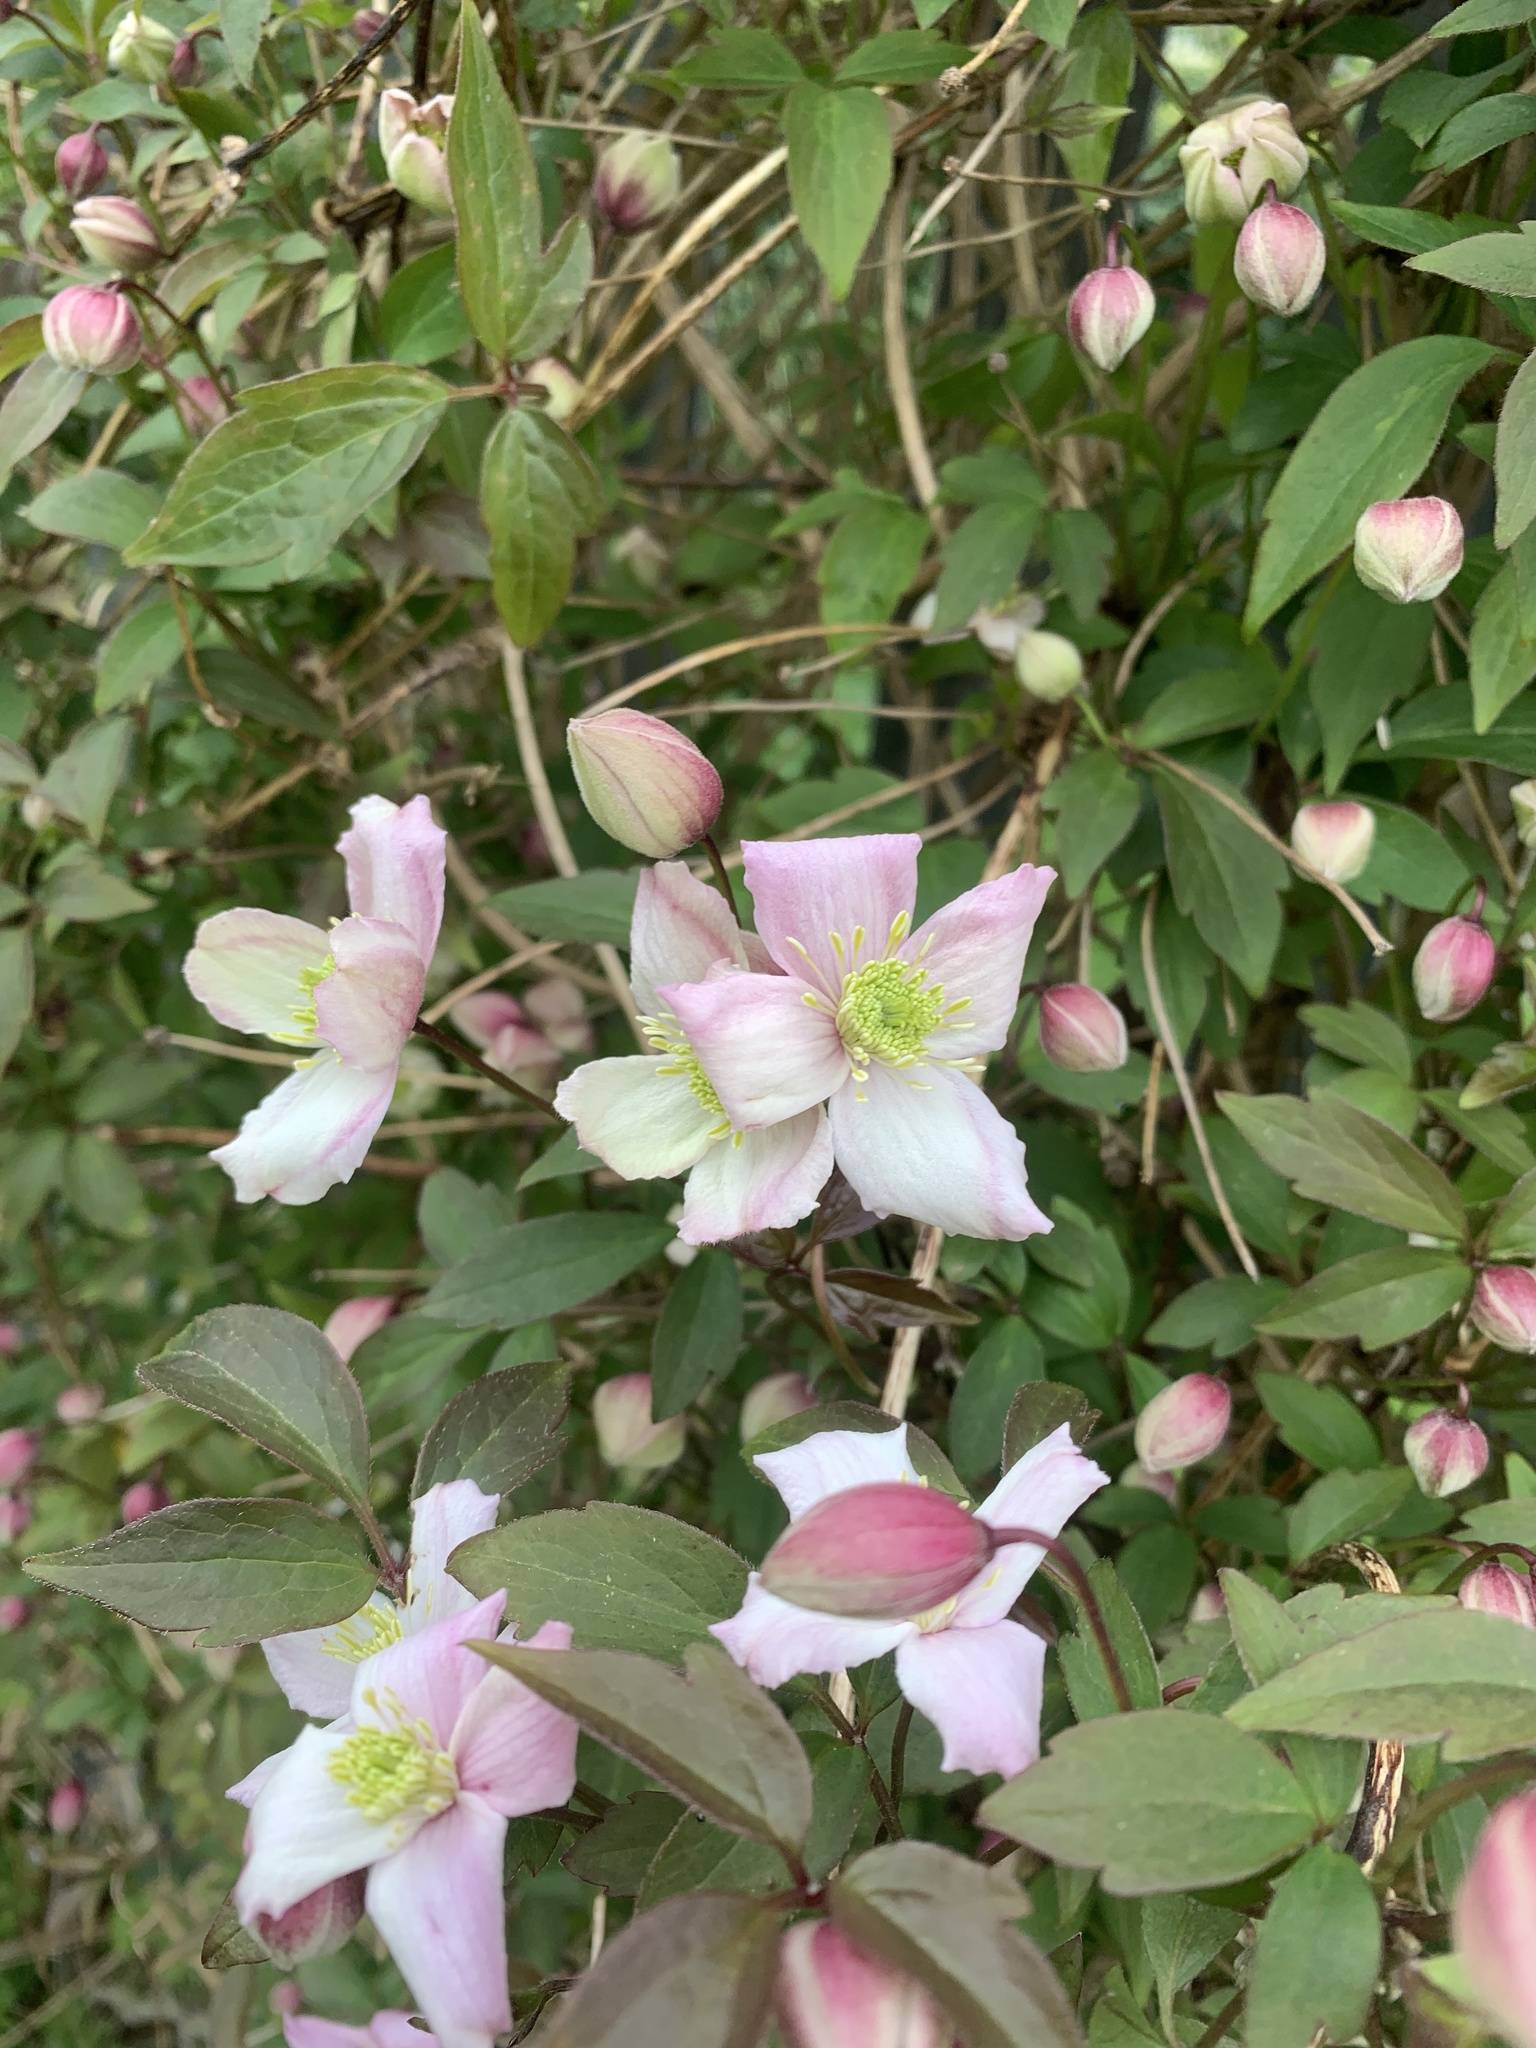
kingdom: Plantae
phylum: Tracheophyta
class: Magnoliopsida
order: Ranunculales
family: Ranunculaceae
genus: Clematis
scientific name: Clematis montana
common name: Himalayan clematis
